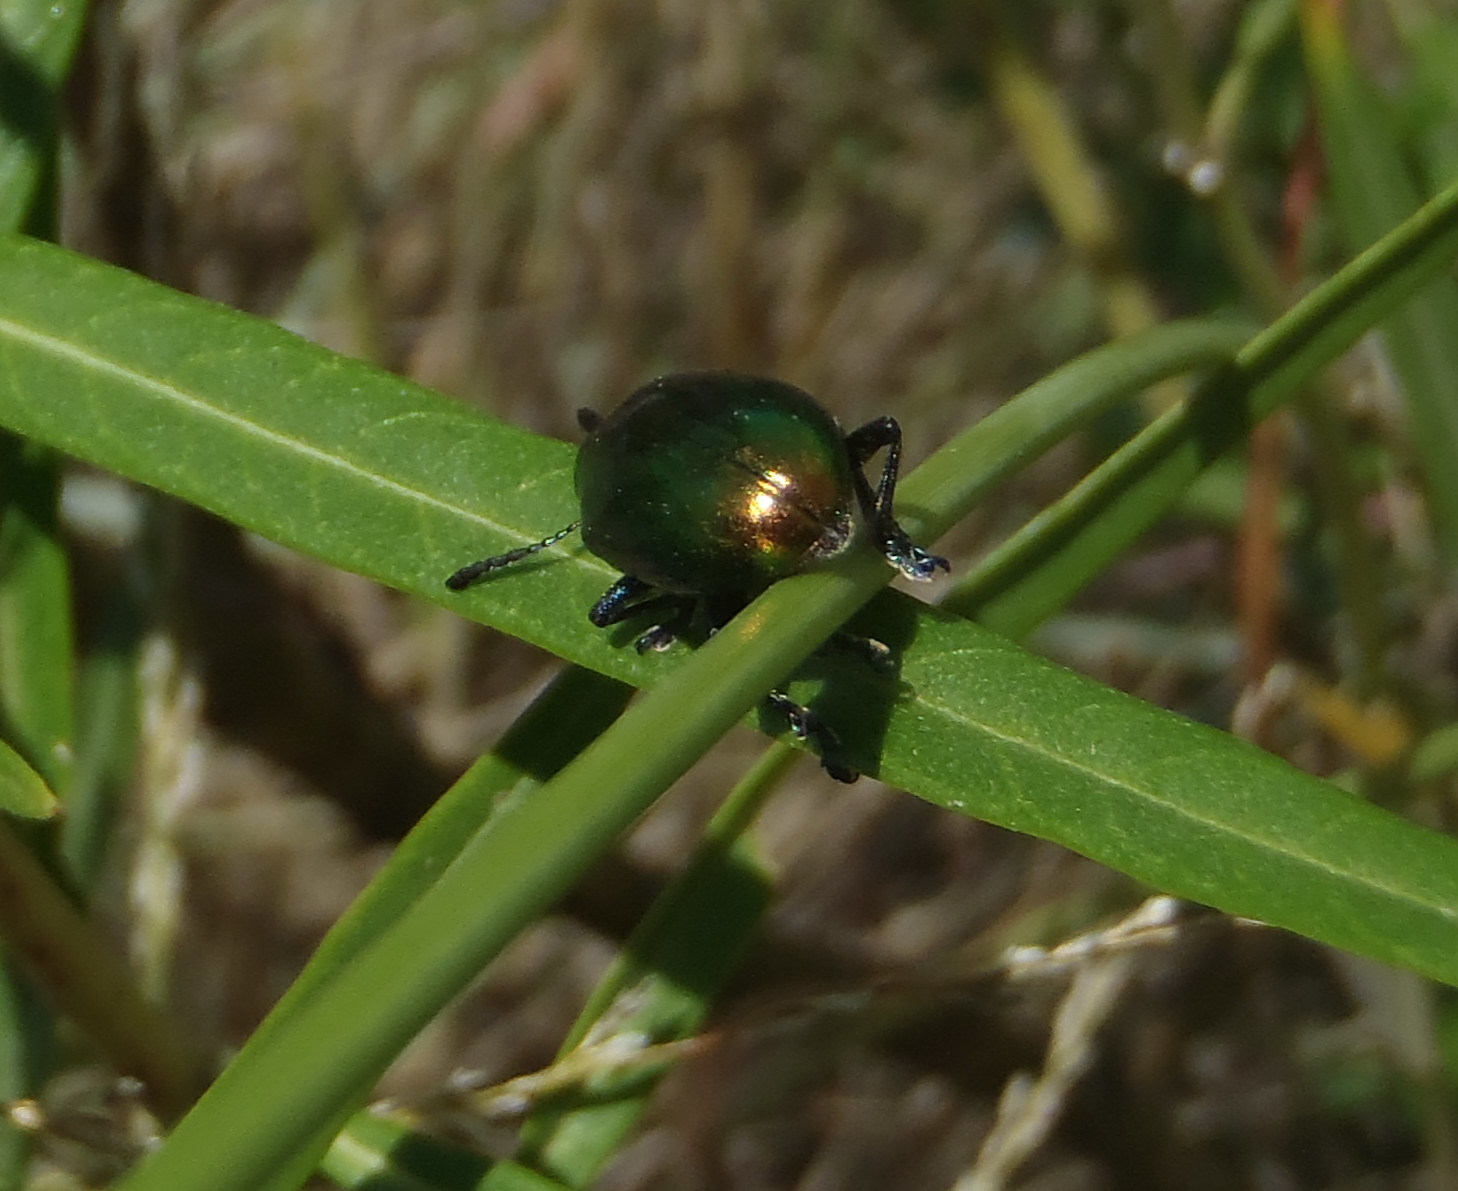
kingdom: Animalia
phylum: Arthropoda
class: Insecta
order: Coleoptera
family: Chrysomelidae
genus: Platycorynus
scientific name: Platycorynus dejeani
